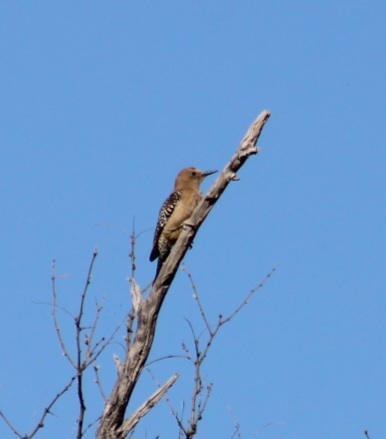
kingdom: Animalia
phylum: Chordata
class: Aves
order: Piciformes
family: Picidae
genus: Melanerpes
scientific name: Melanerpes uropygialis
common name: Gila woodpecker
